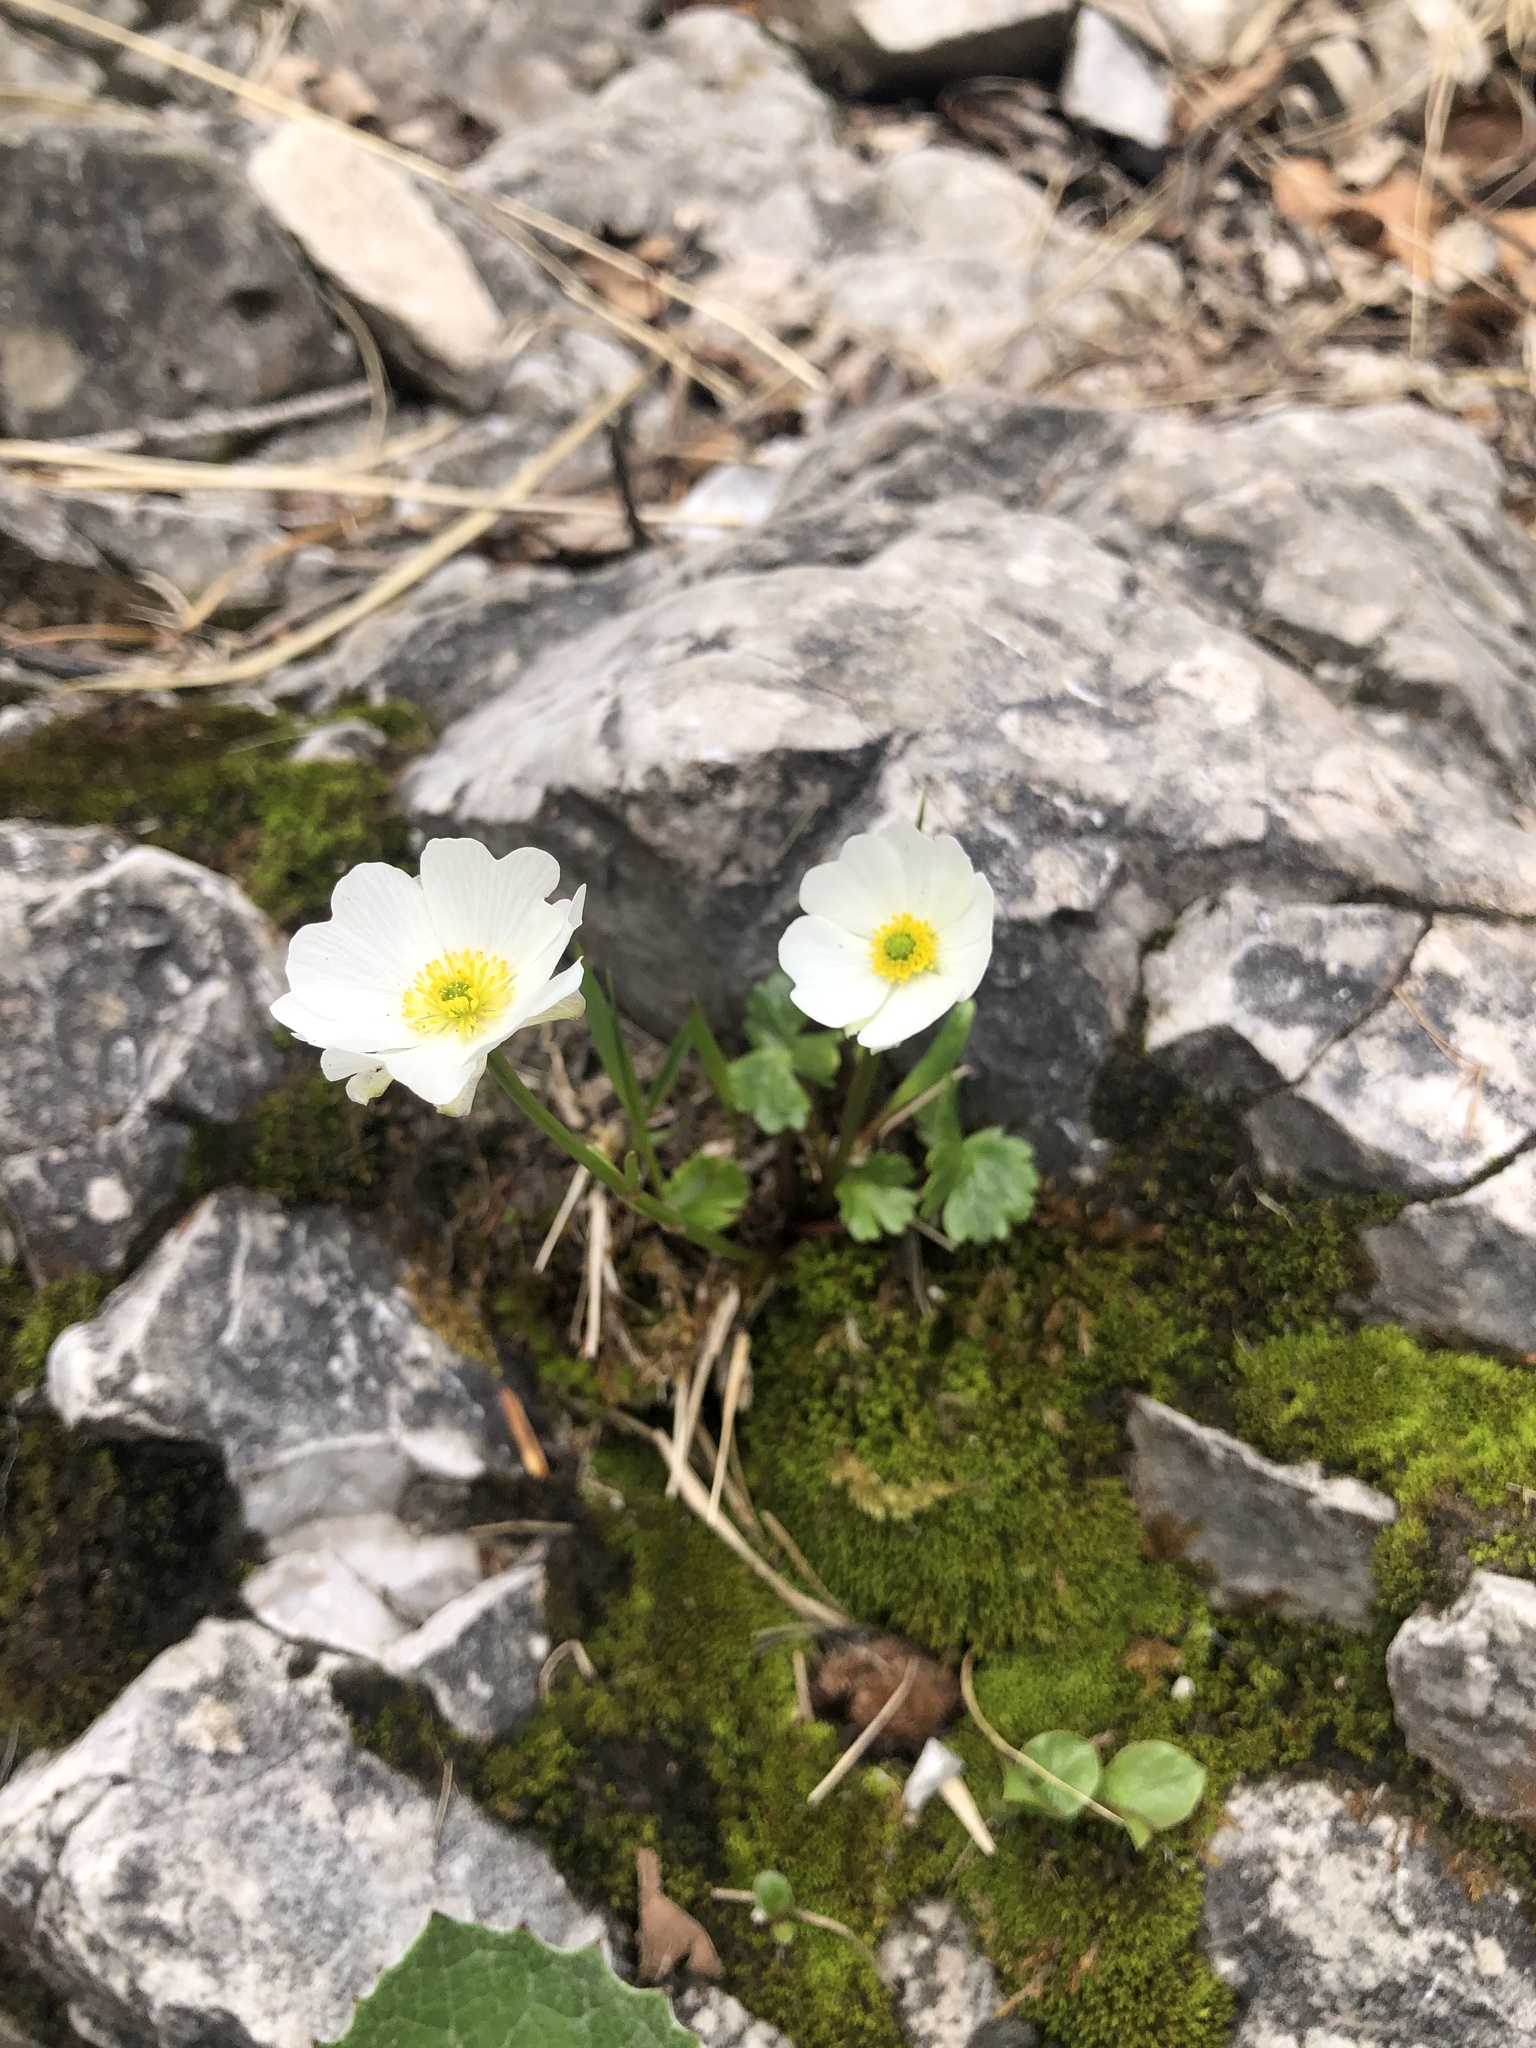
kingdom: Plantae
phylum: Tracheophyta
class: Magnoliopsida
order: Rosales
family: Rosaceae
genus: Dryas
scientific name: Dryas octopetala
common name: Eight-petal mountain-avens
